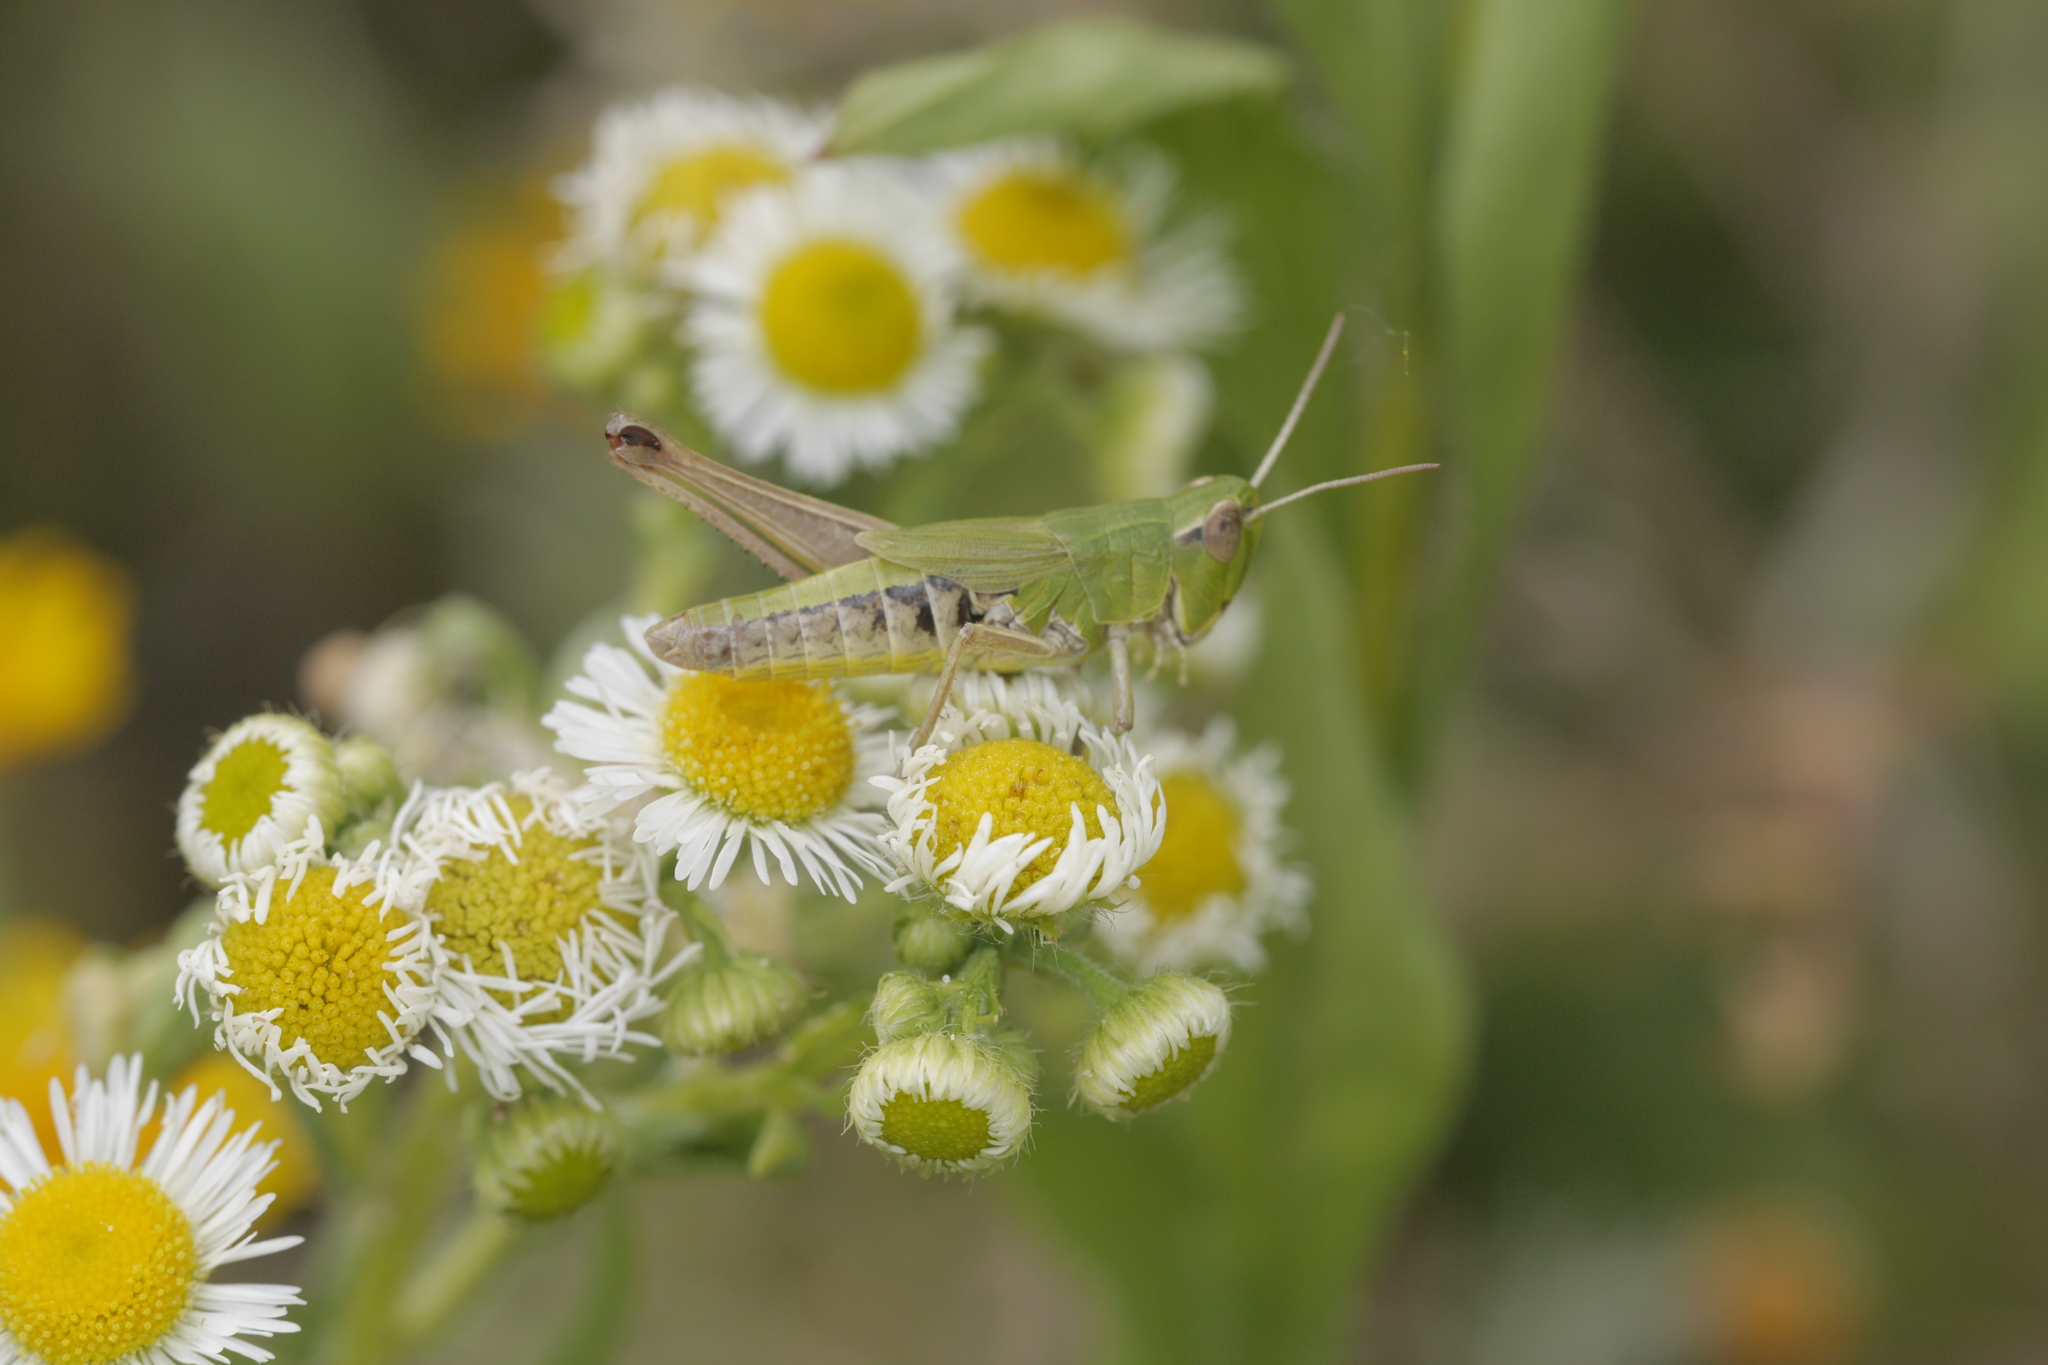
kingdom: Animalia
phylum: Arthropoda
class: Insecta
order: Orthoptera
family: Acrididae
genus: Pseudochorthippus
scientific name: Pseudochorthippus parallelus
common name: Meadow grasshopper
